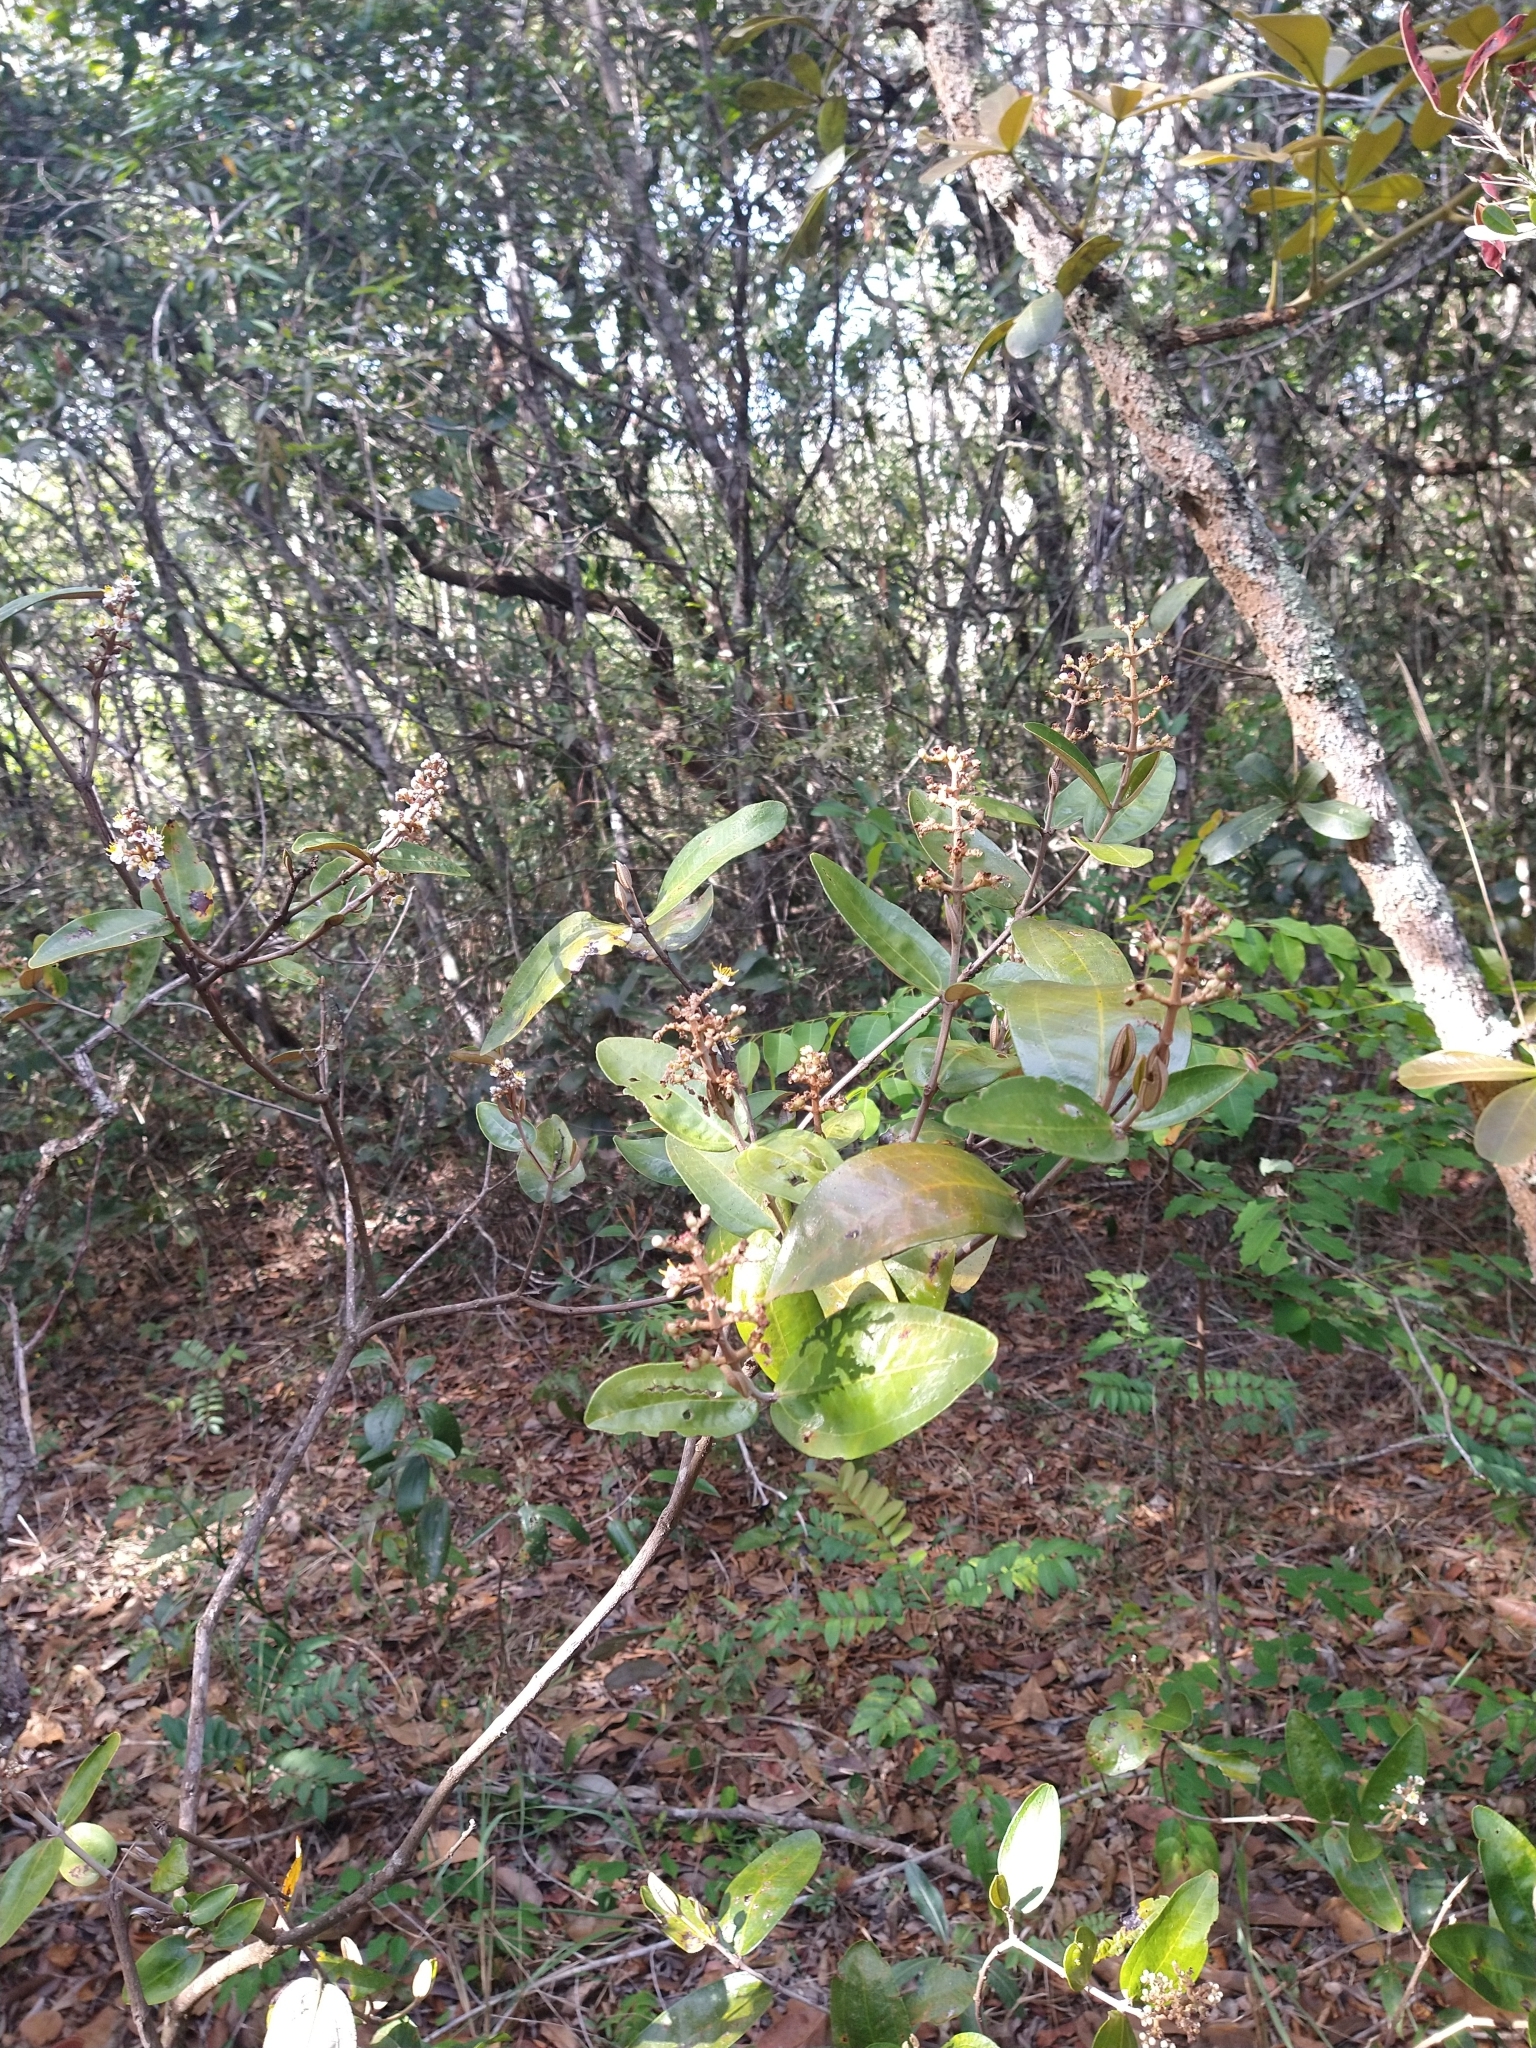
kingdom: Plantae
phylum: Tracheophyta
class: Magnoliopsida
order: Myrtales
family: Melastomataceae
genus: Miconia
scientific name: Miconia fallax
